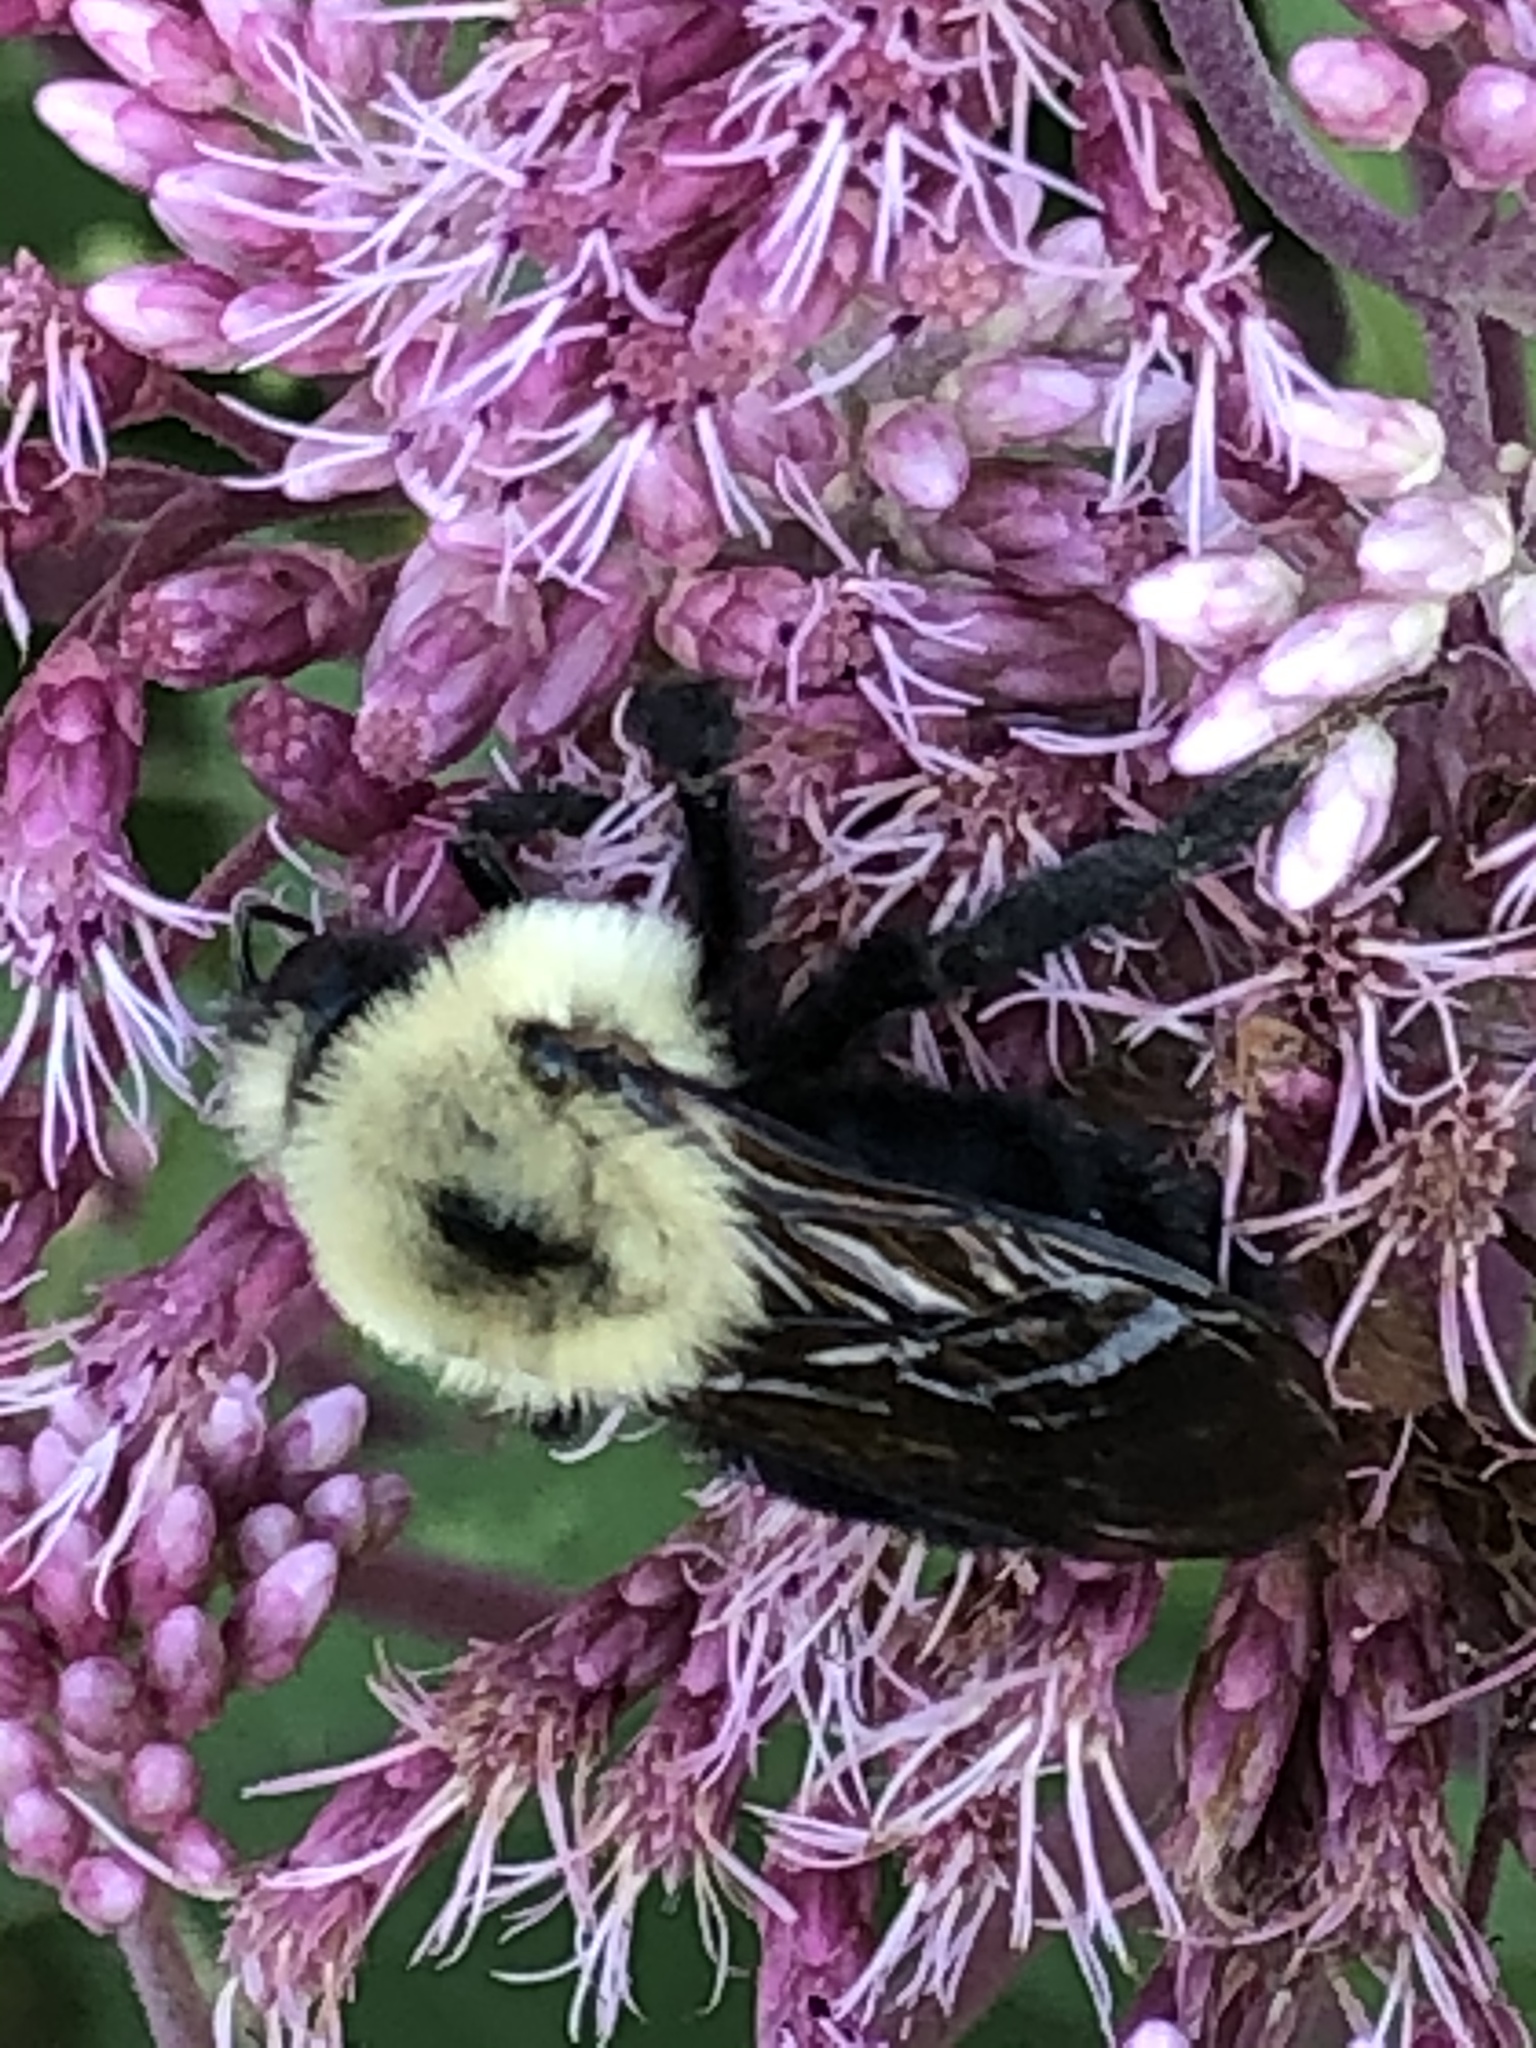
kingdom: Animalia
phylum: Arthropoda
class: Insecta
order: Hymenoptera
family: Apidae
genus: Bombus
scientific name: Bombus citrinus
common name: Lemon cuckoo bumble bee
